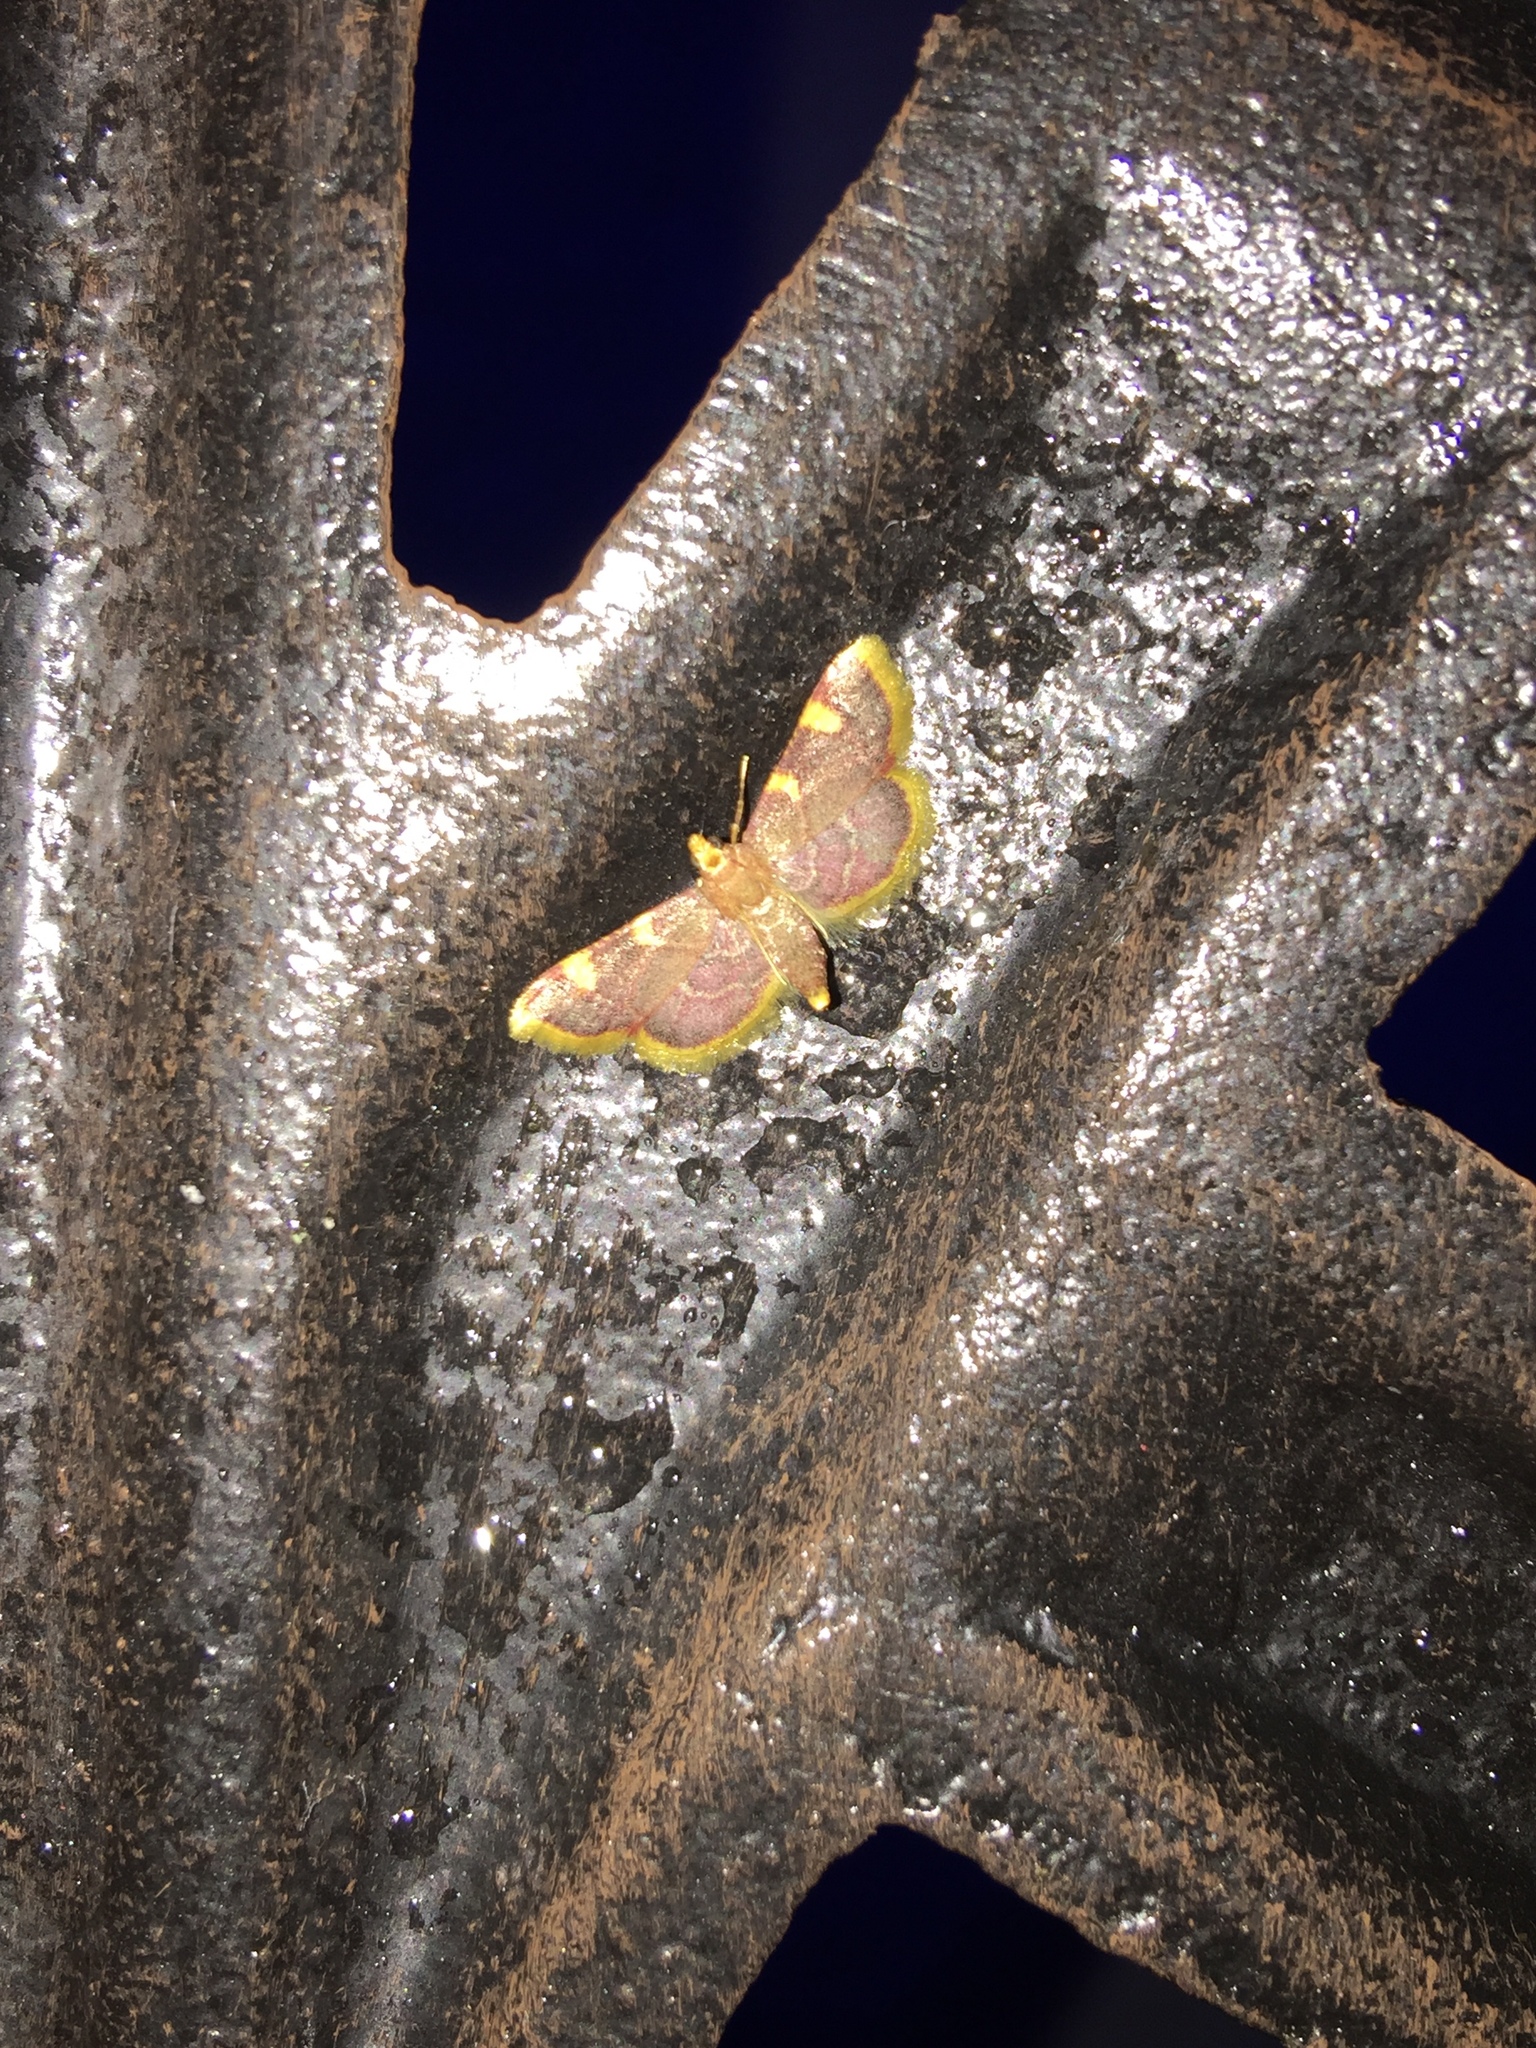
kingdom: Animalia
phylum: Arthropoda
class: Insecta
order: Lepidoptera
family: Pyralidae
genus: Hypsopygia
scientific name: Hypsopygia costalis
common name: Gold triangle
